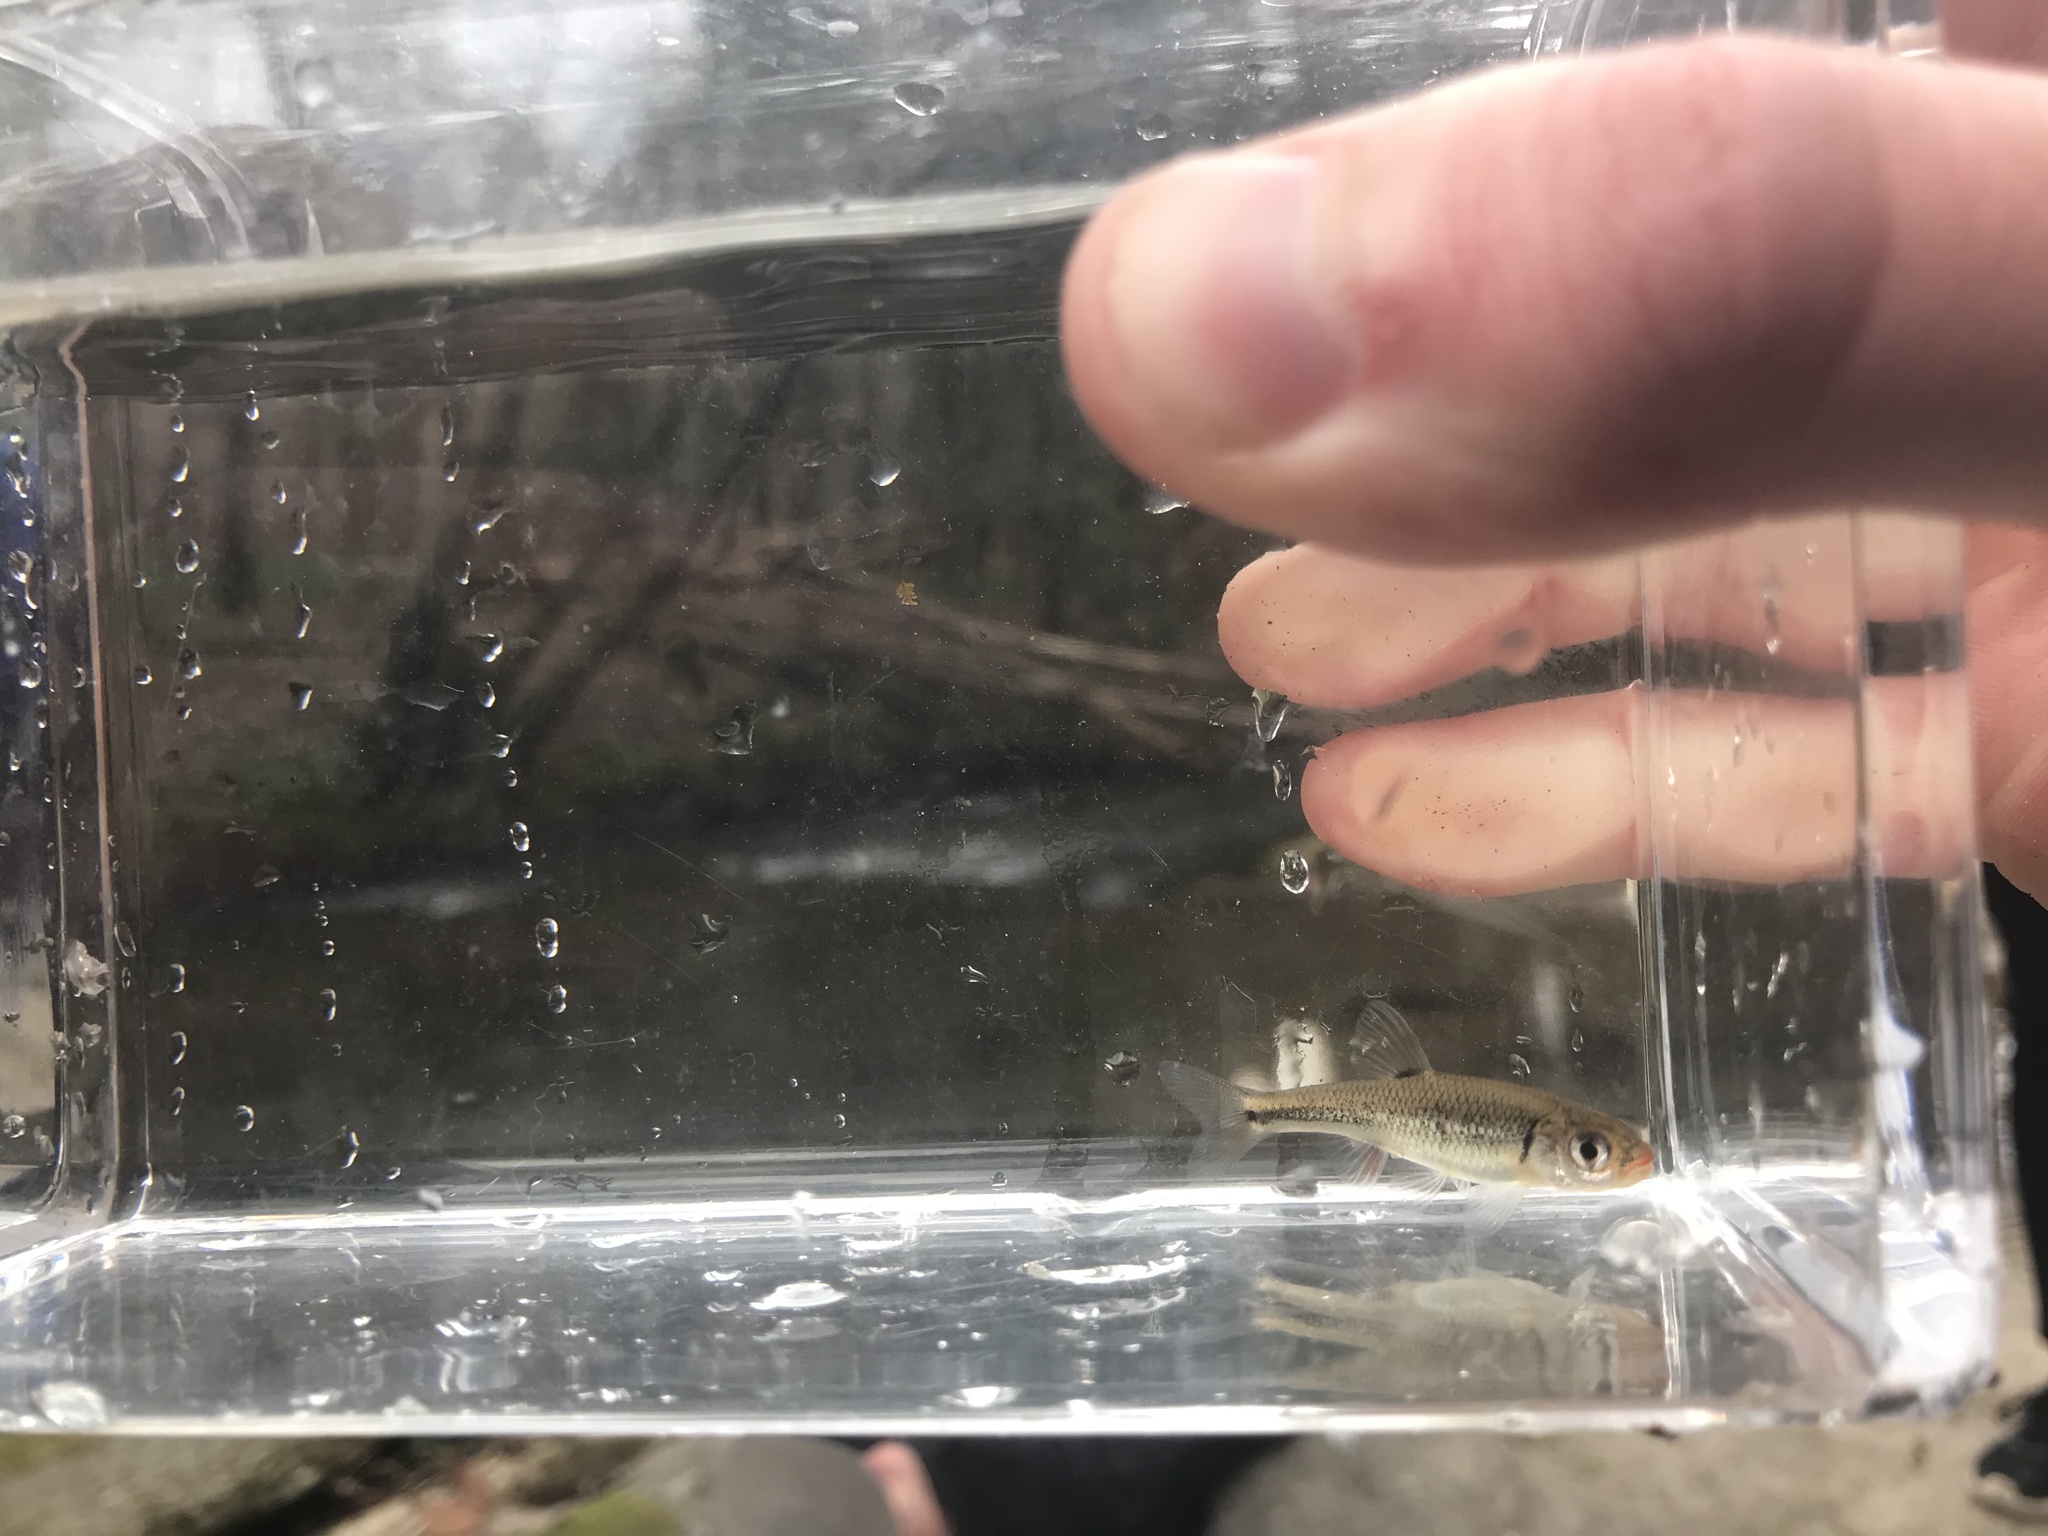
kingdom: Animalia
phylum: Chordata
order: Cypriniformes
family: Cyprinidae
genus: Notropis
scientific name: Notropis
